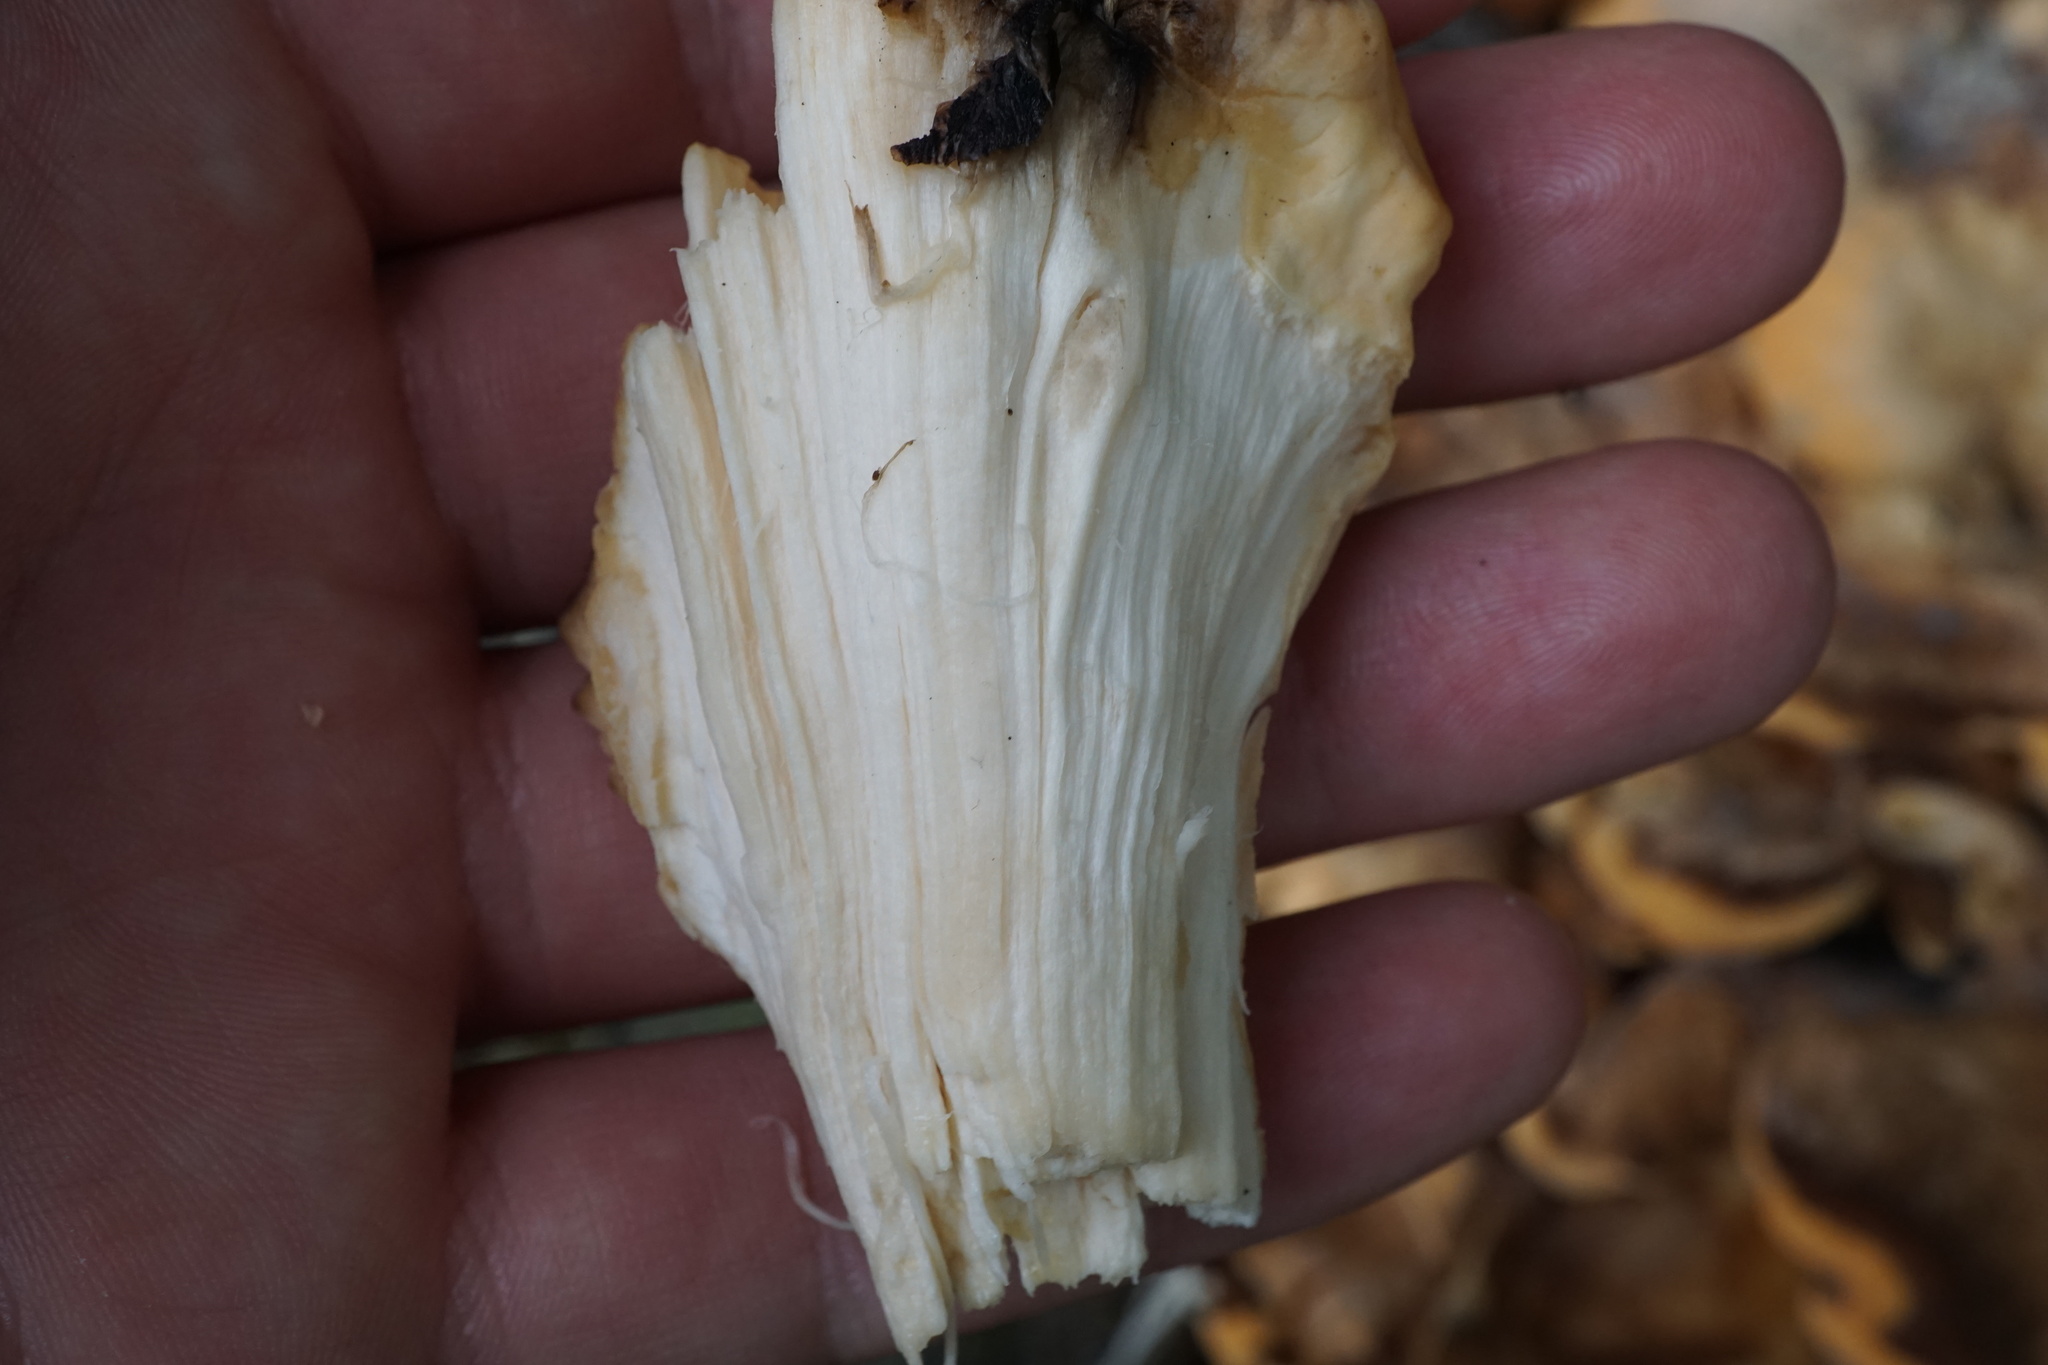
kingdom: Fungi
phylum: Basidiomycota
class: Agaricomycetes
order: Polyporales
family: Meripilaceae
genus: Meripilus
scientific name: Meripilus giganteus
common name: Giant polypore
